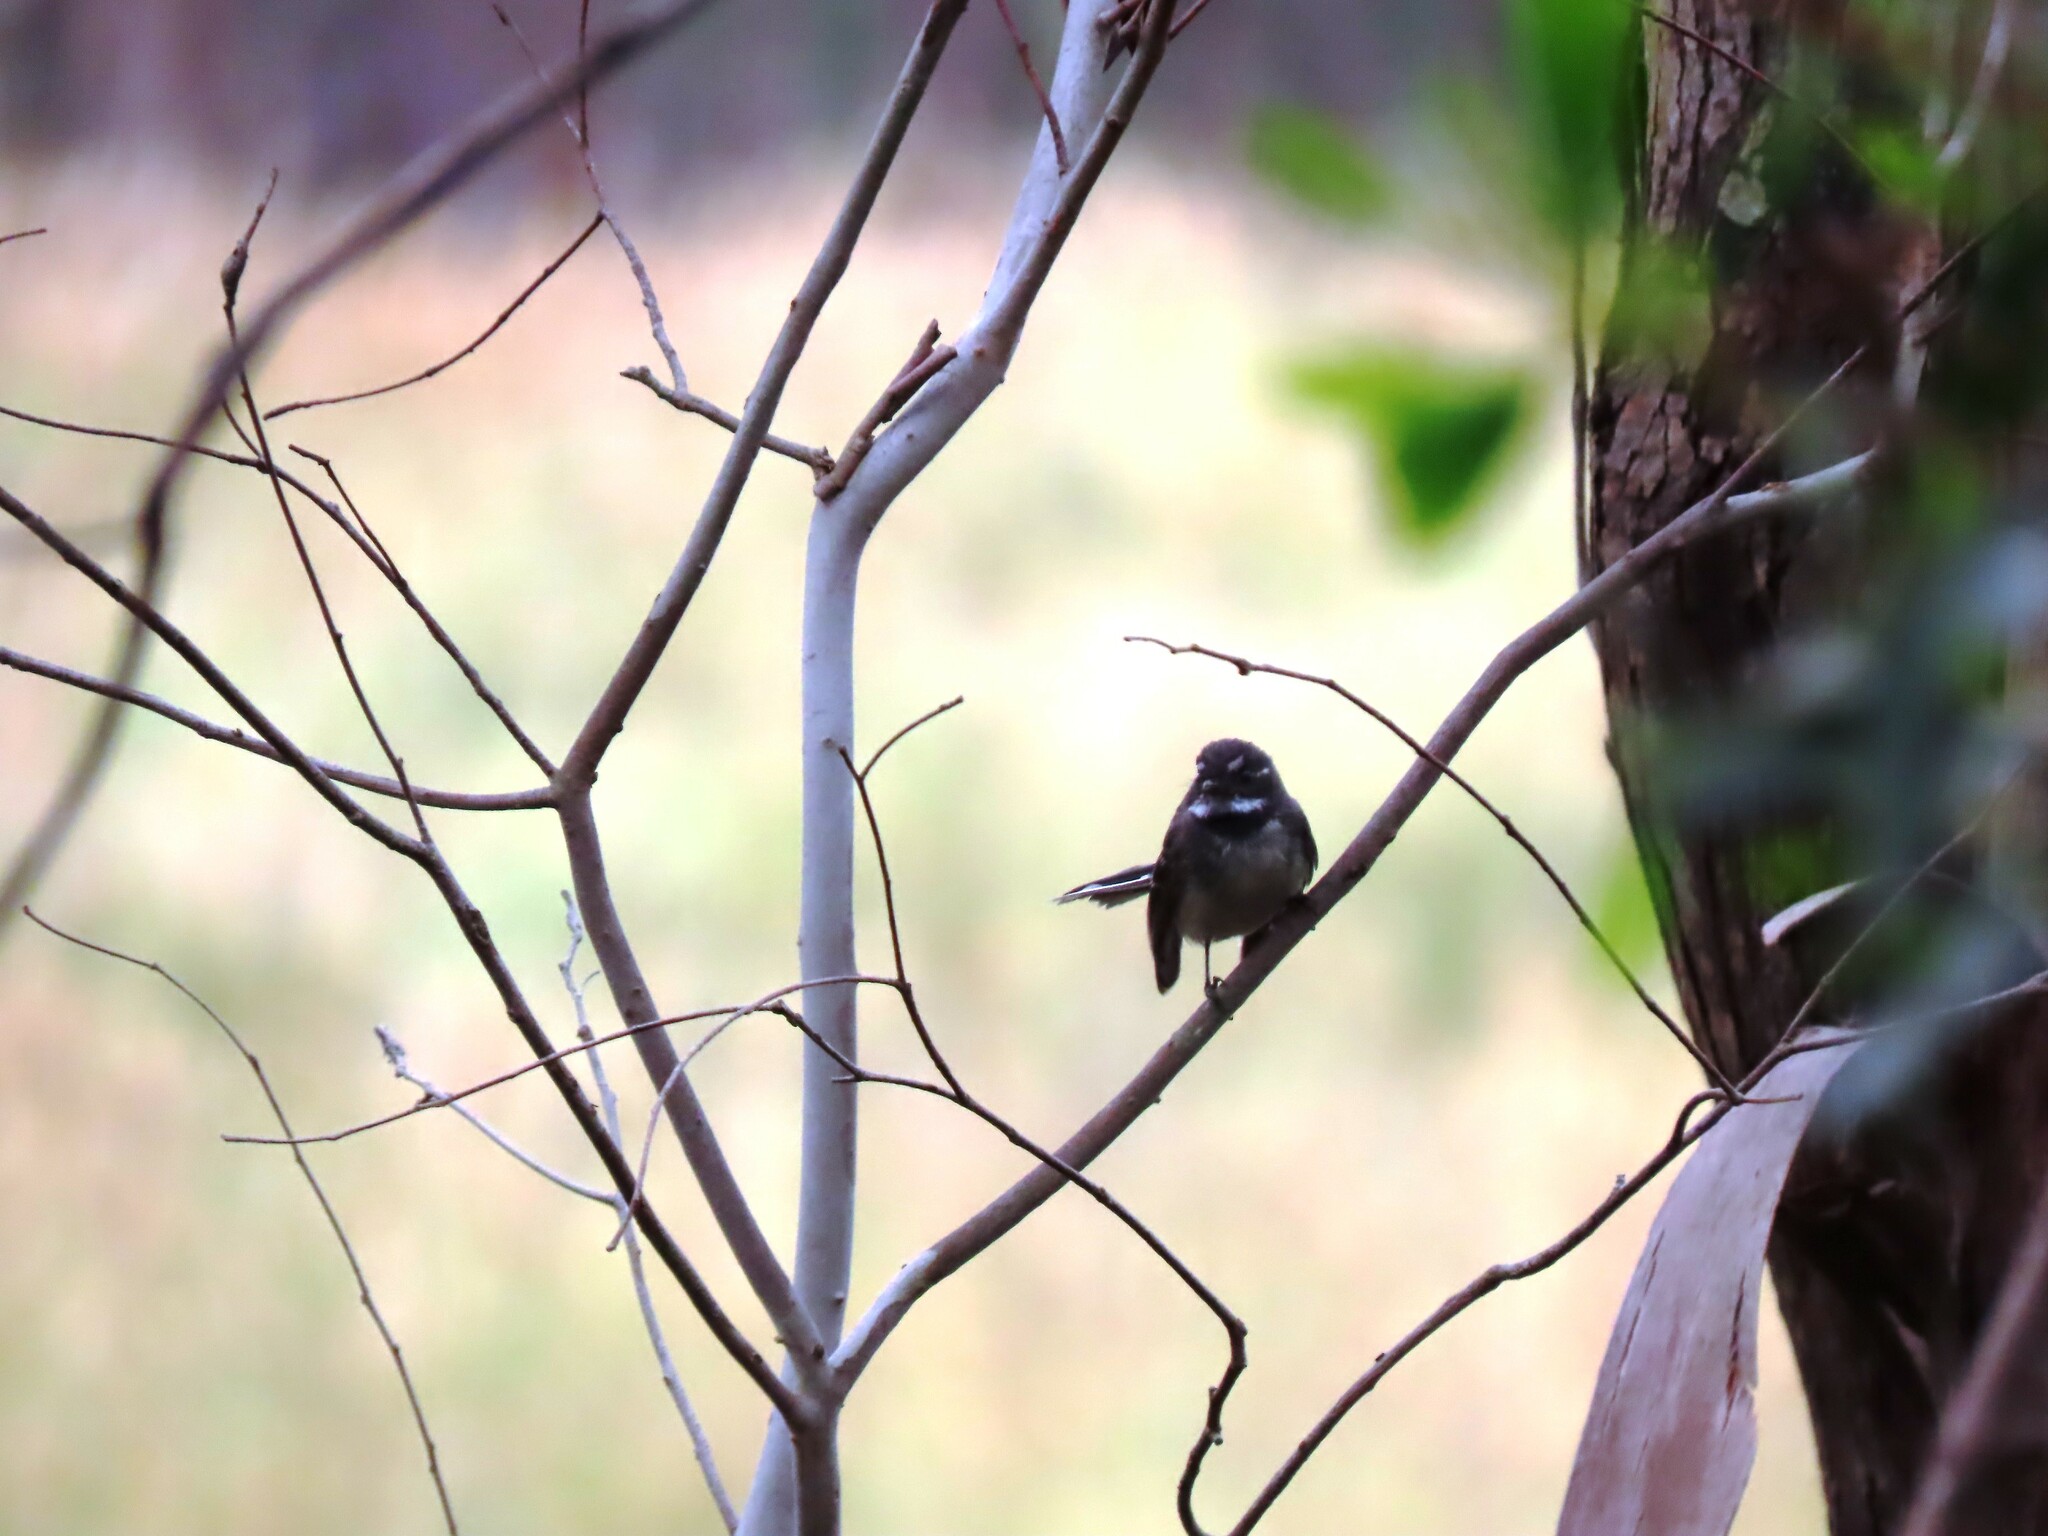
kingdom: Animalia
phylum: Chordata
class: Aves
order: Passeriformes
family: Rhipiduridae
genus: Rhipidura
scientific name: Rhipidura albiscapa
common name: Grey fantail
